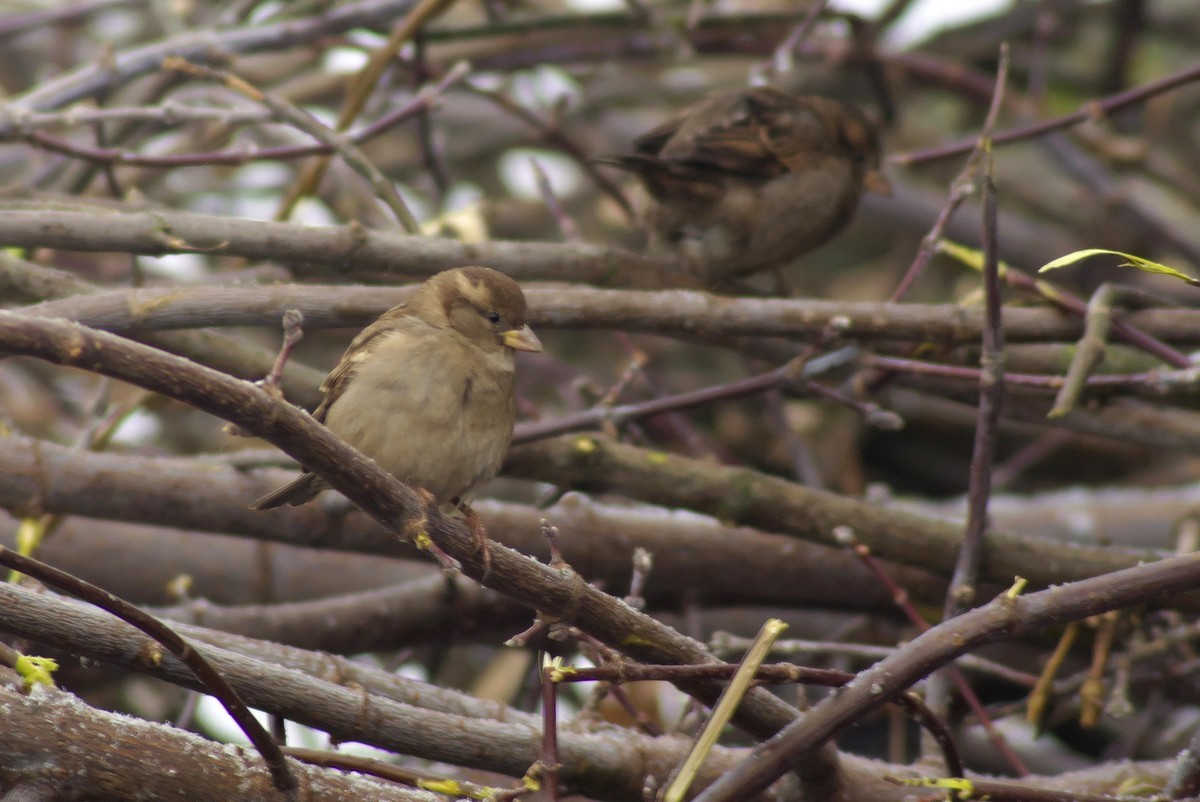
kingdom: Animalia
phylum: Chordata
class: Aves
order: Passeriformes
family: Passeridae
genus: Passer
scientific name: Passer domesticus
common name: House sparrow
